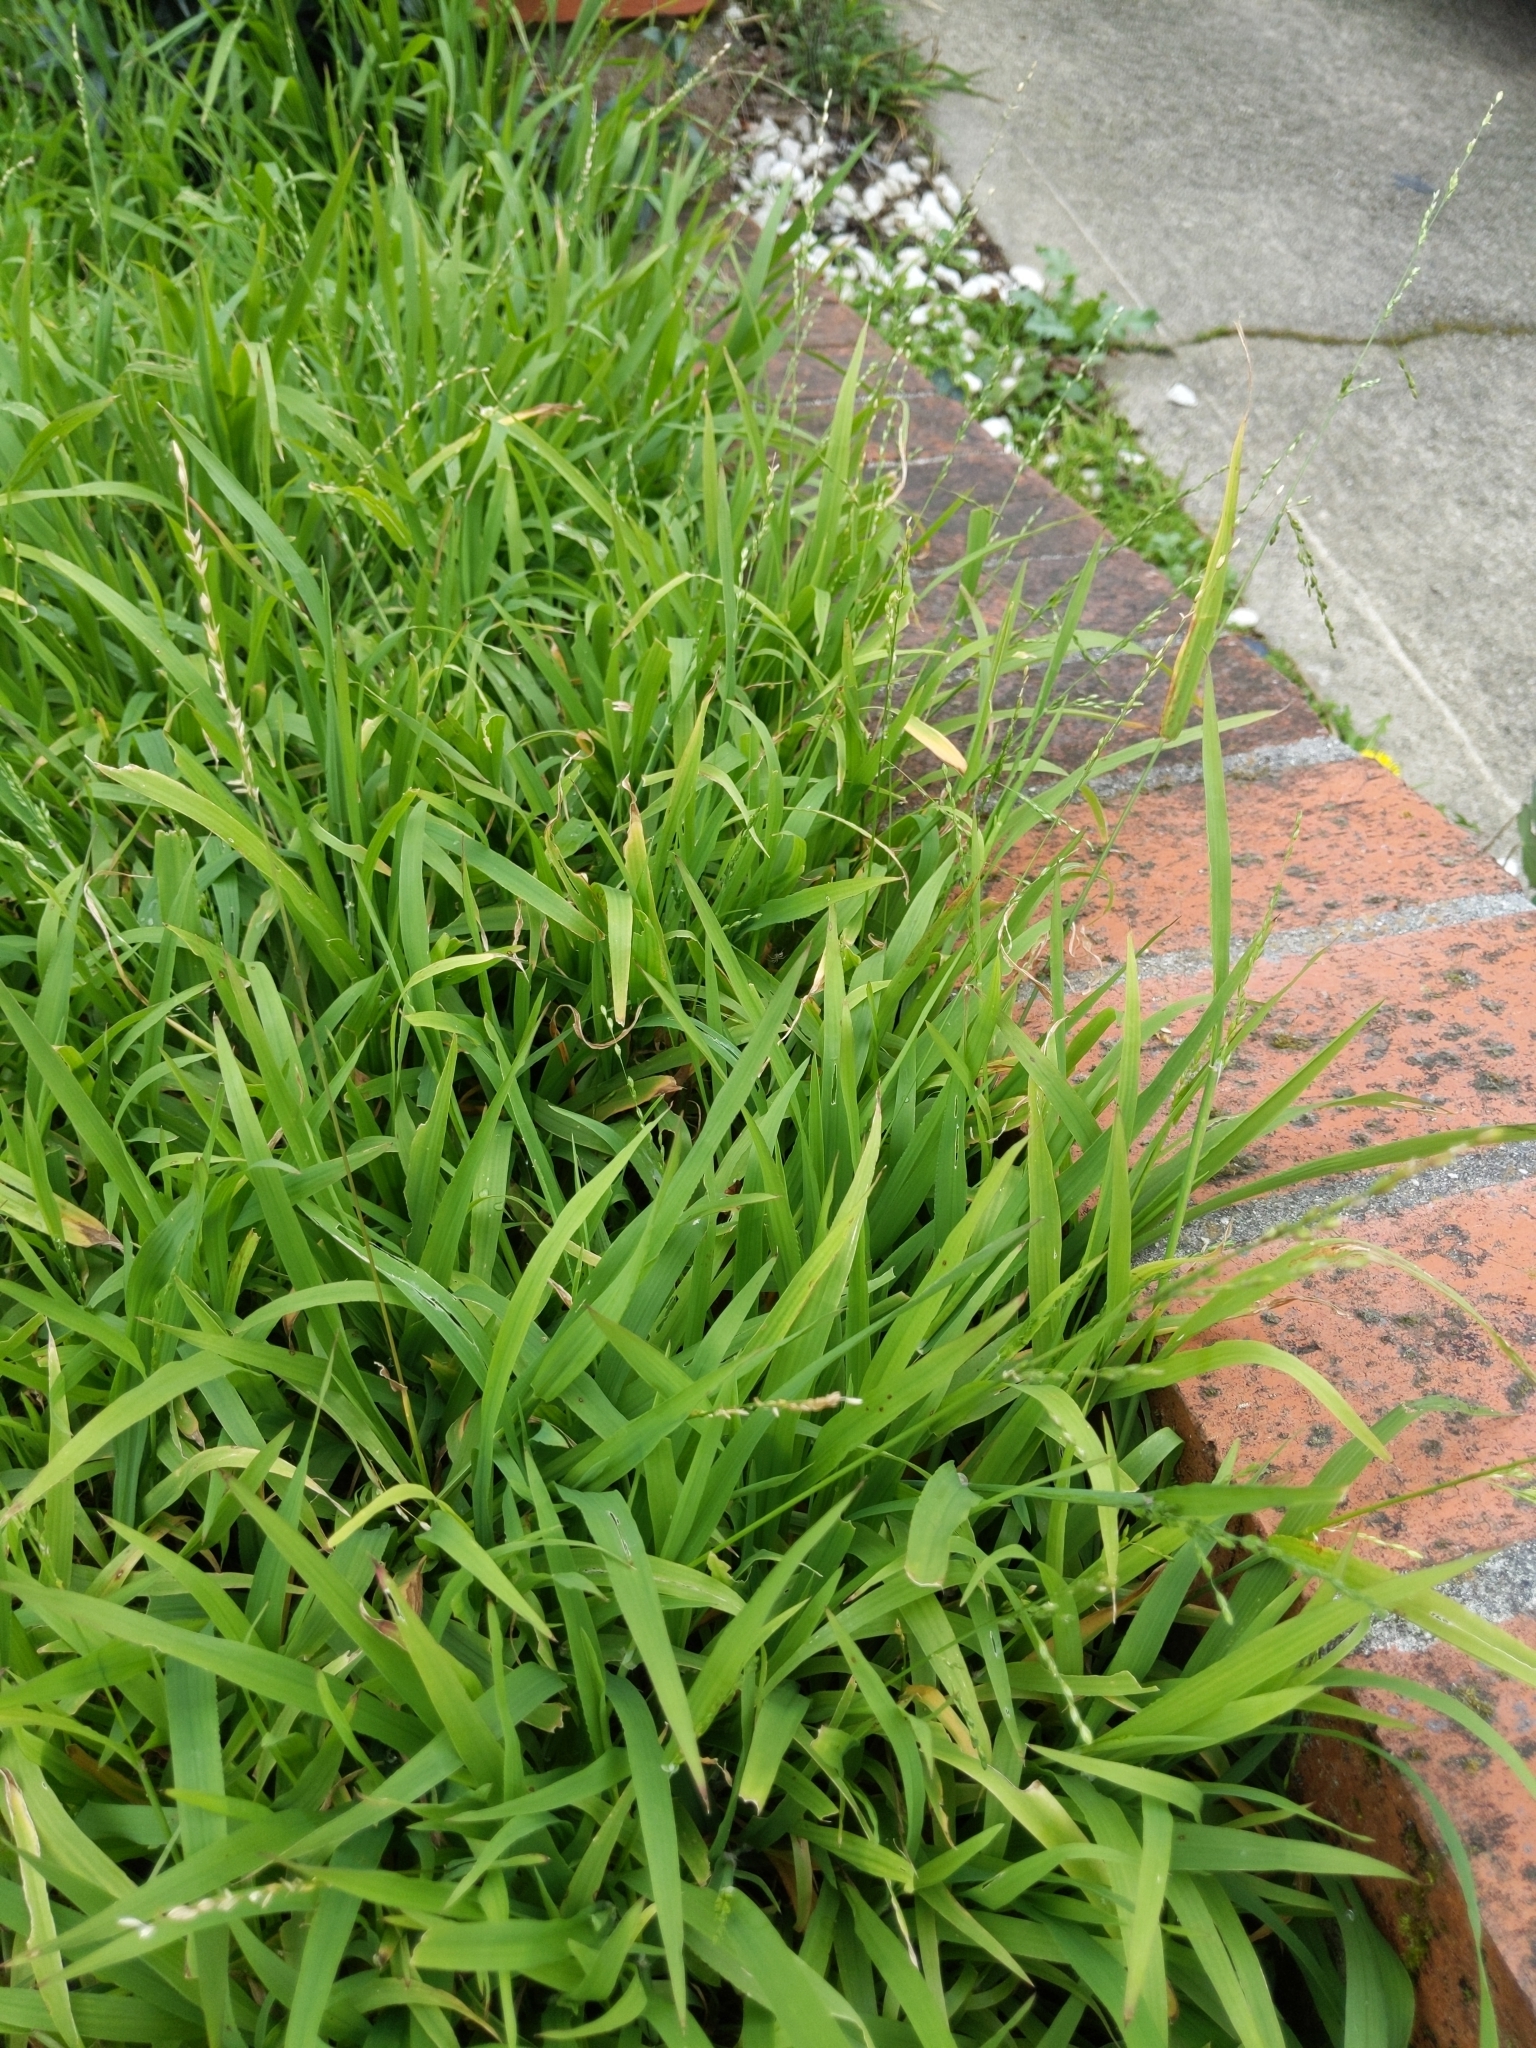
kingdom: Plantae
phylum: Tracheophyta
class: Liliopsida
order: Poales
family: Poaceae
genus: Ehrharta
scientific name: Ehrharta erecta
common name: Panic veldtgrass
